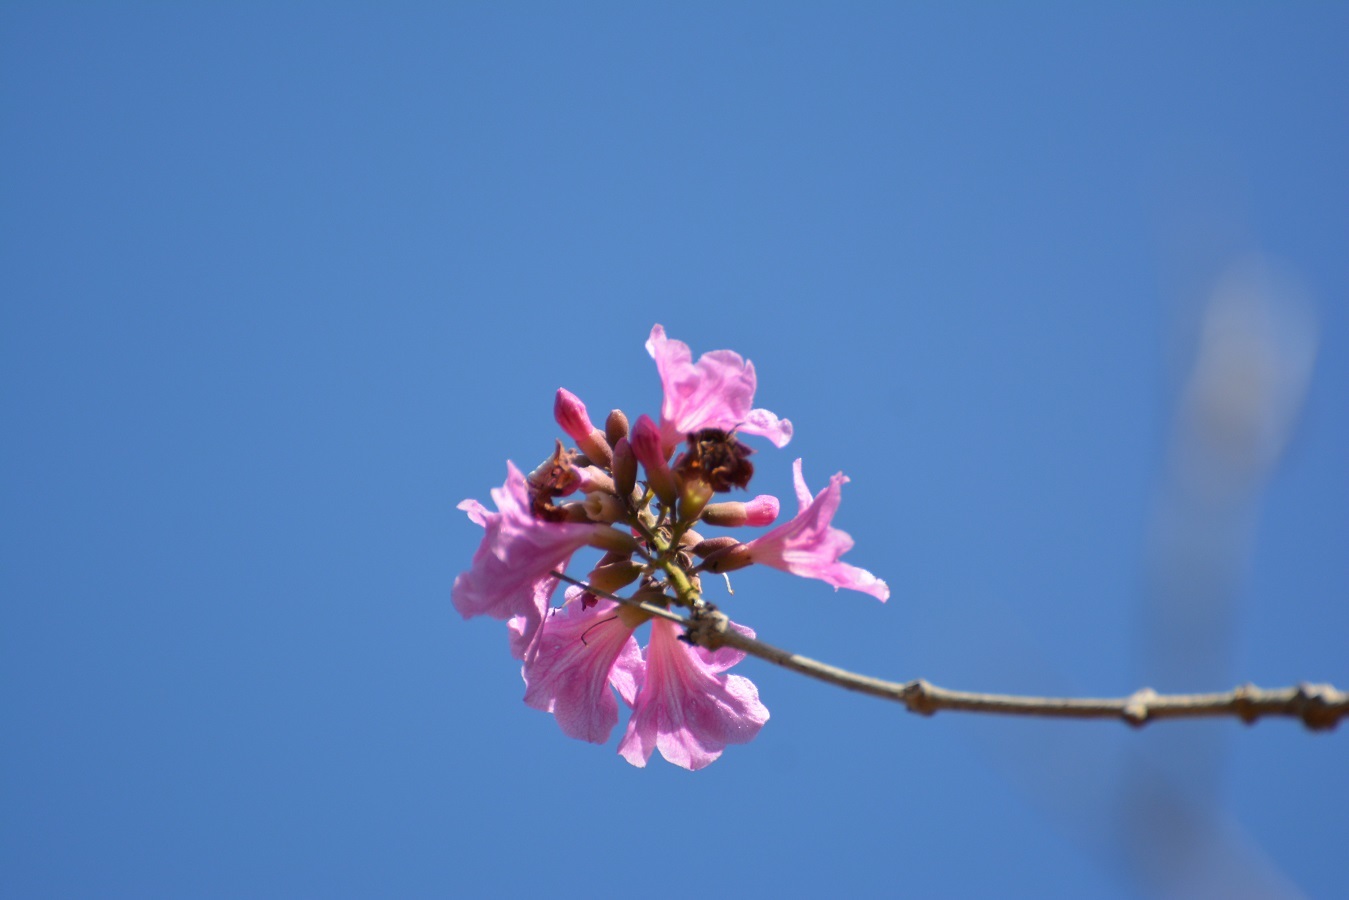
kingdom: Plantae
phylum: Tracheophyta
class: Magnoliopsida
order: Lamiales
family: Bignoniaceae
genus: Handroanthus
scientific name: Handroanthus impetiginosum
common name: Pink trumpet tree
